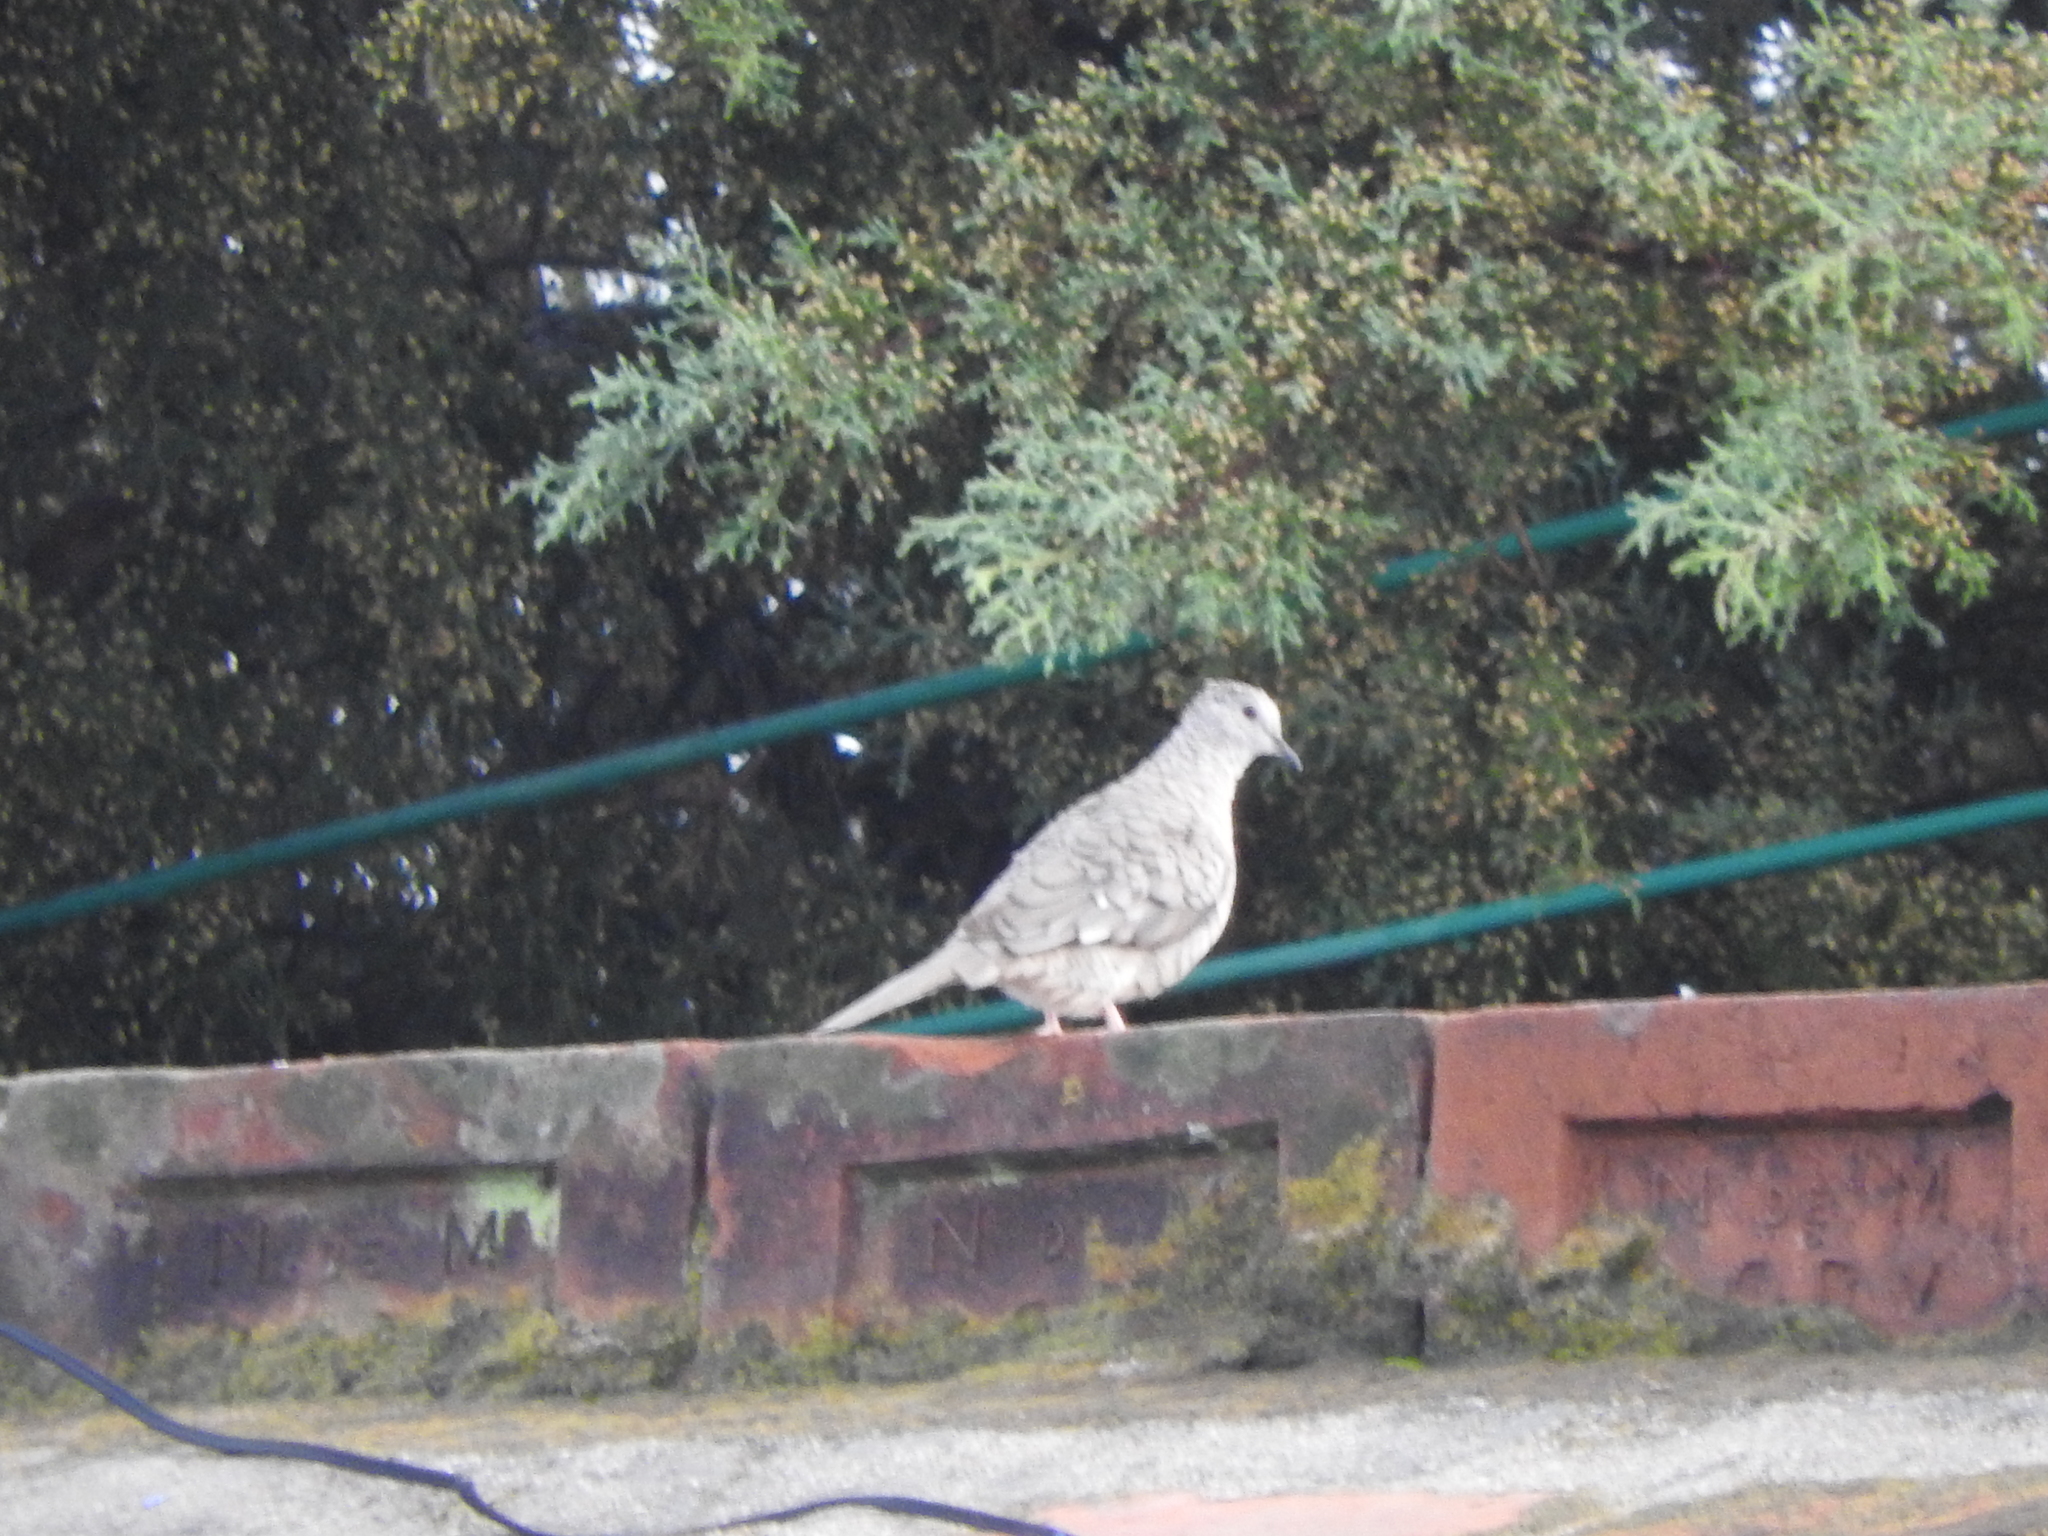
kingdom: Animalia
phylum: Chordata
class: Aves
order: Columbiformes
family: Columbidae
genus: Columbina
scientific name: Columbina inca
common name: Inca dove
